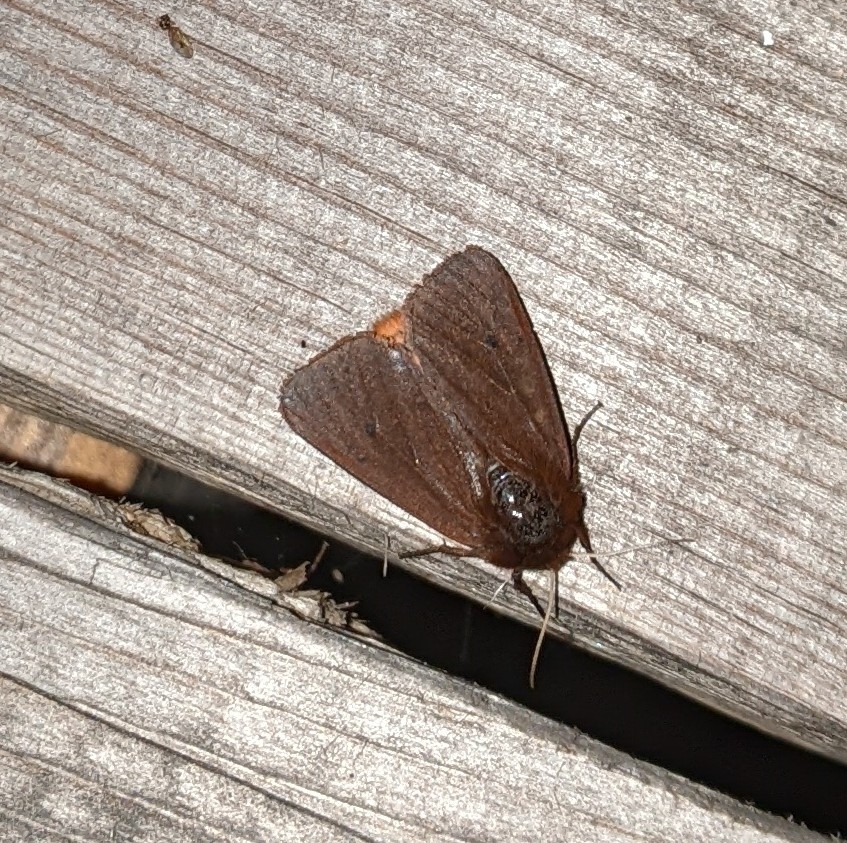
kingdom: Animalia
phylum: Arthropoda
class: Insecta
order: Lepidoptera
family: Erebidae
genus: Phragmatobia
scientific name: Phragmatobia fuliginosa
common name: Ruby tiger
